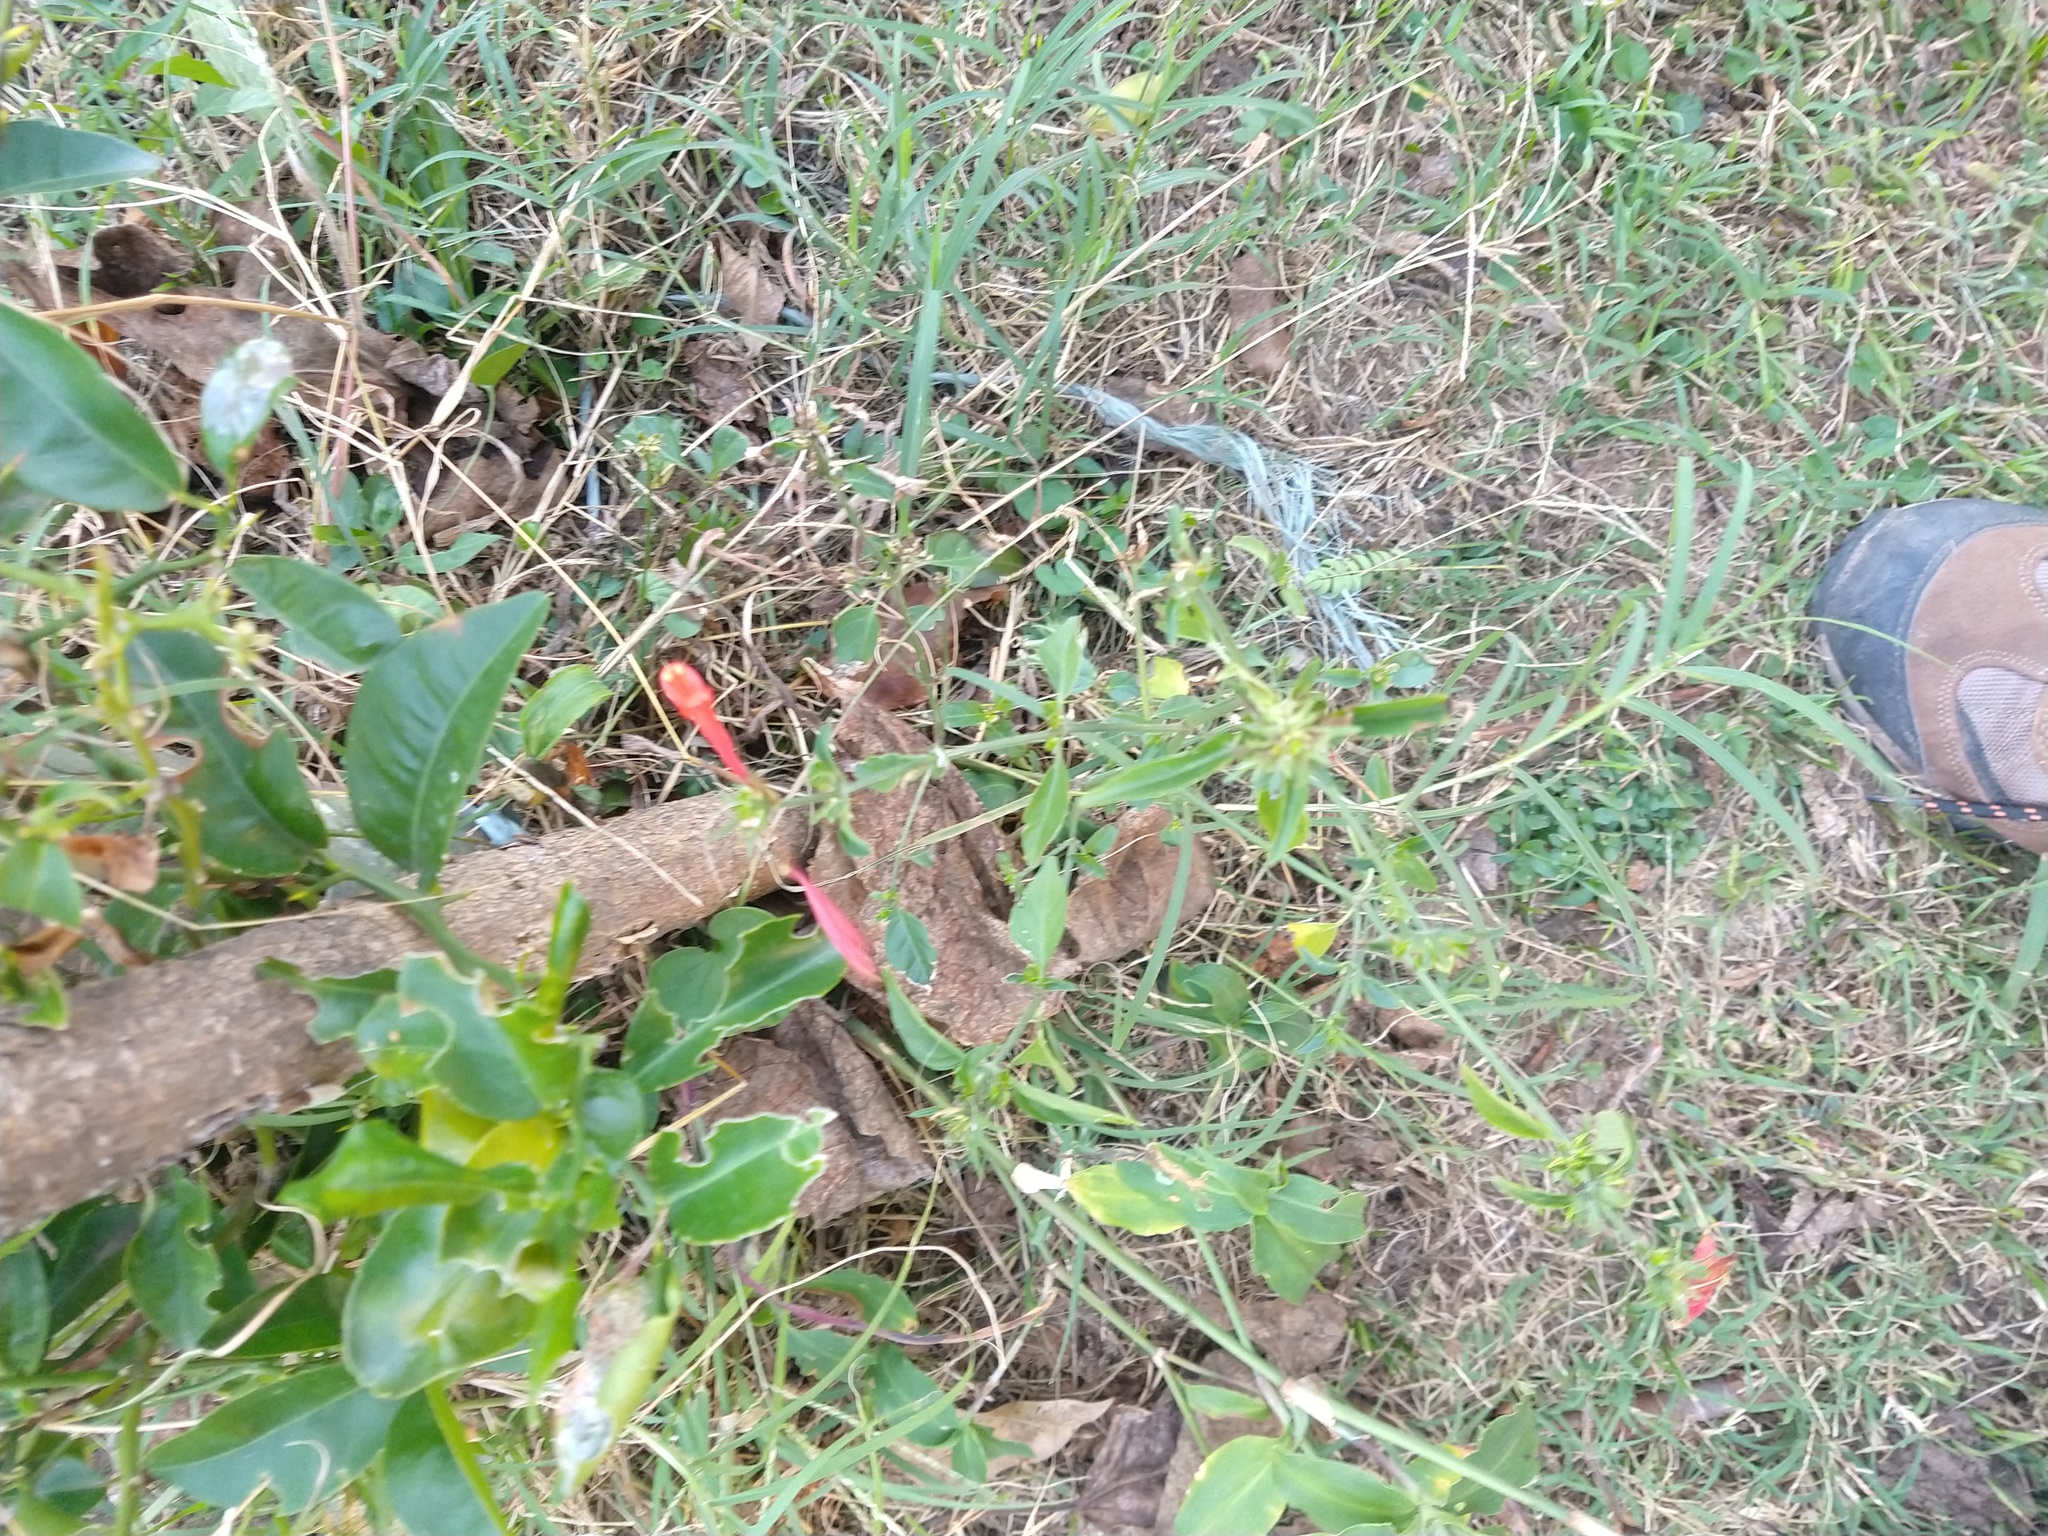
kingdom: Plantae
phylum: Tracheophyta
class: Magnoliopsida
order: Lamiales
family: Acanthaceae
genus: Dicliptera
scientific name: Dicliptera squarrosa
